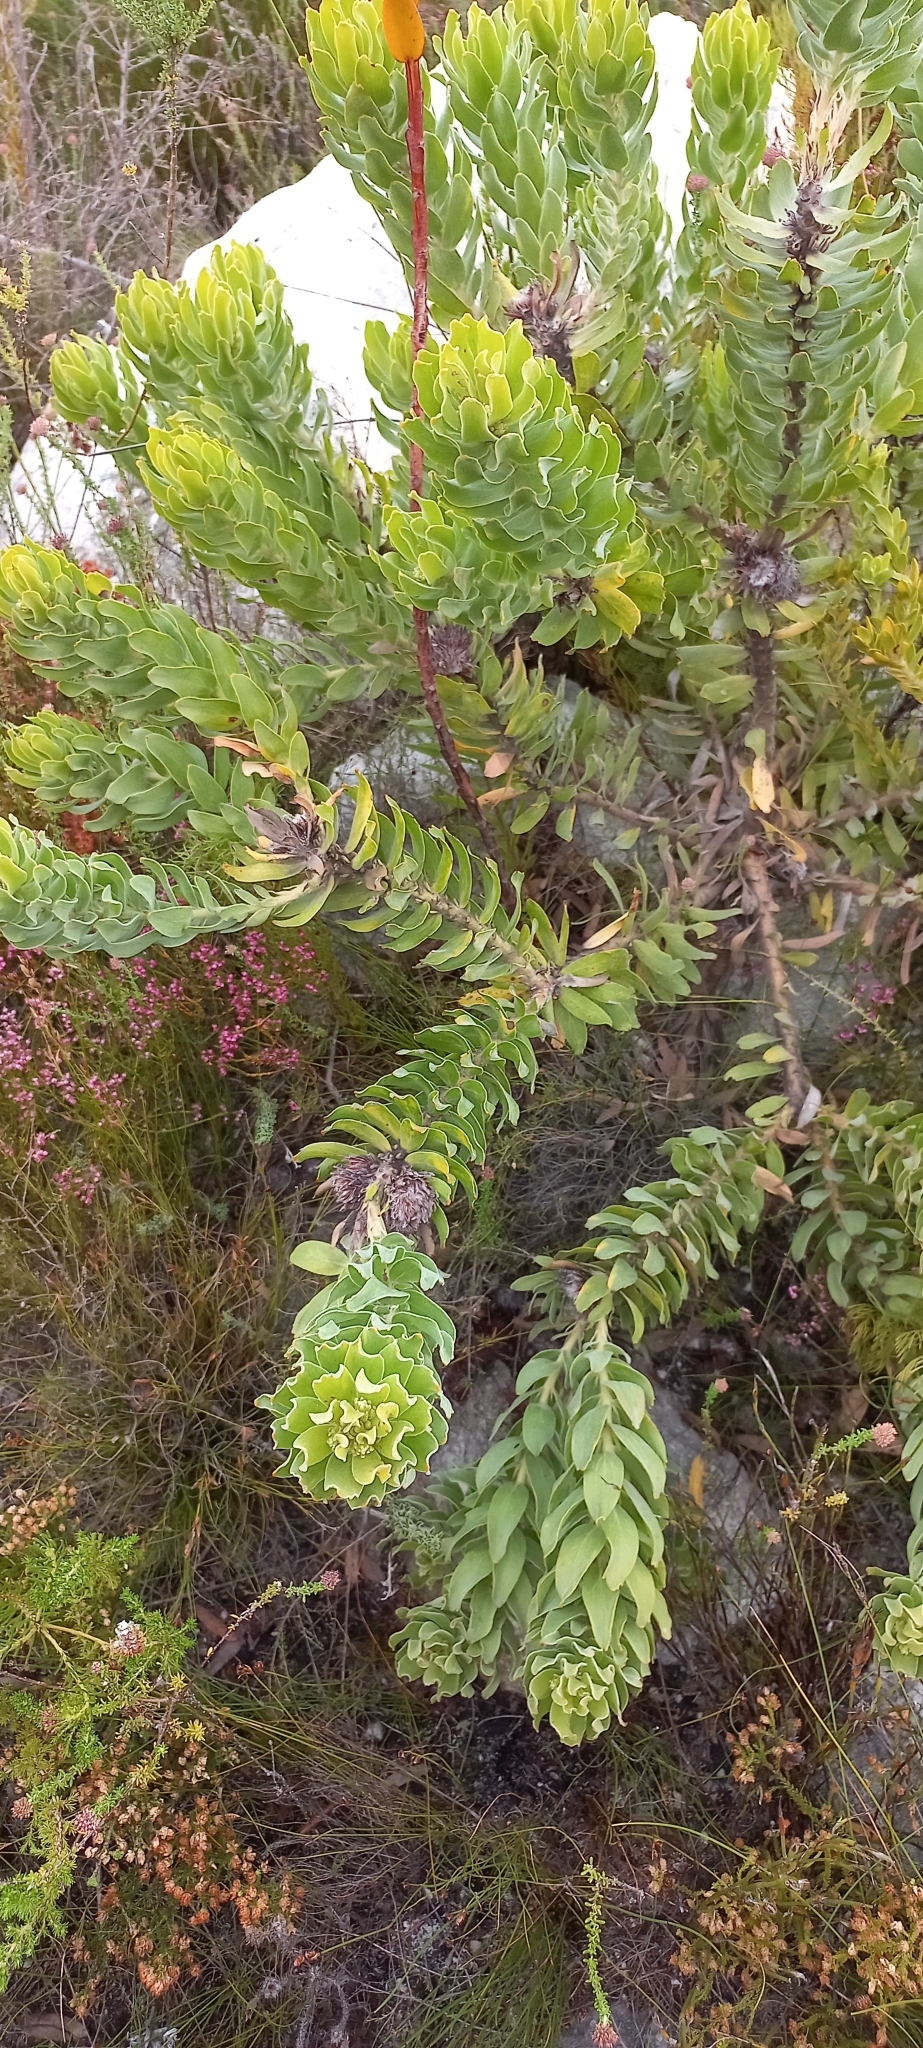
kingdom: Plantae
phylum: Tracheophyta
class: Magnoliopsida
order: Proteales
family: Proteaceae
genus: Leucospermum
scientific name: Leucospermum oleifolium
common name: Matches
